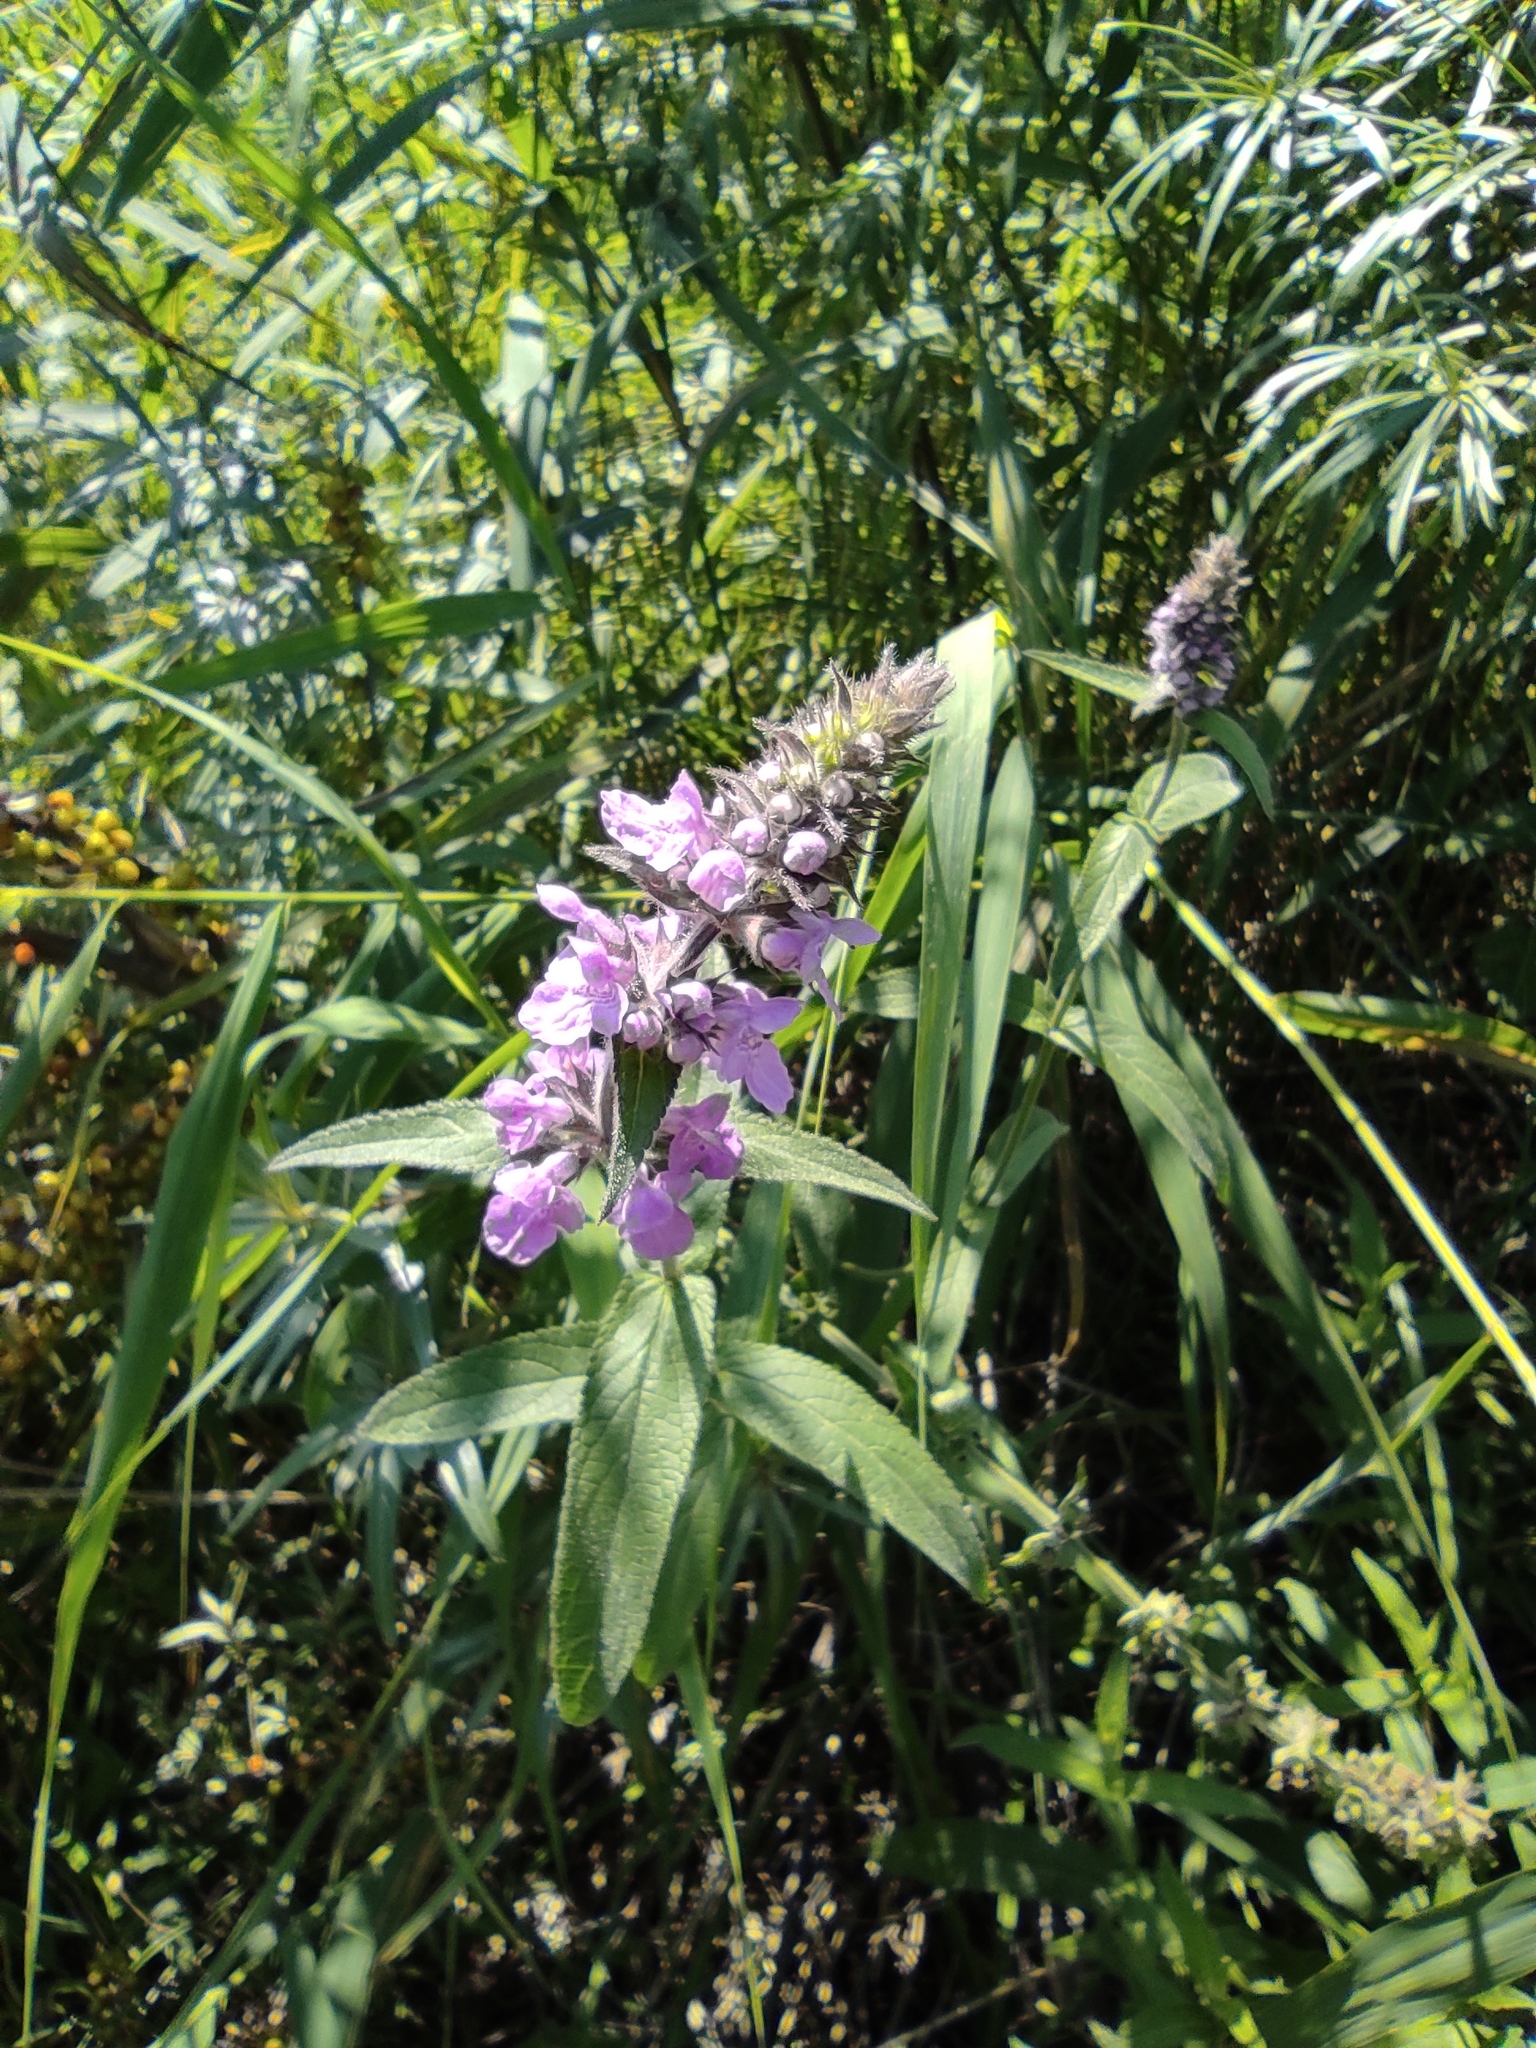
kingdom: Plantae
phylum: Tracheophyta
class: Magnoliopsida
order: Lamiales
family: Lamiaceae
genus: Stachys
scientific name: Stachys palustris
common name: Marsh woundwort
